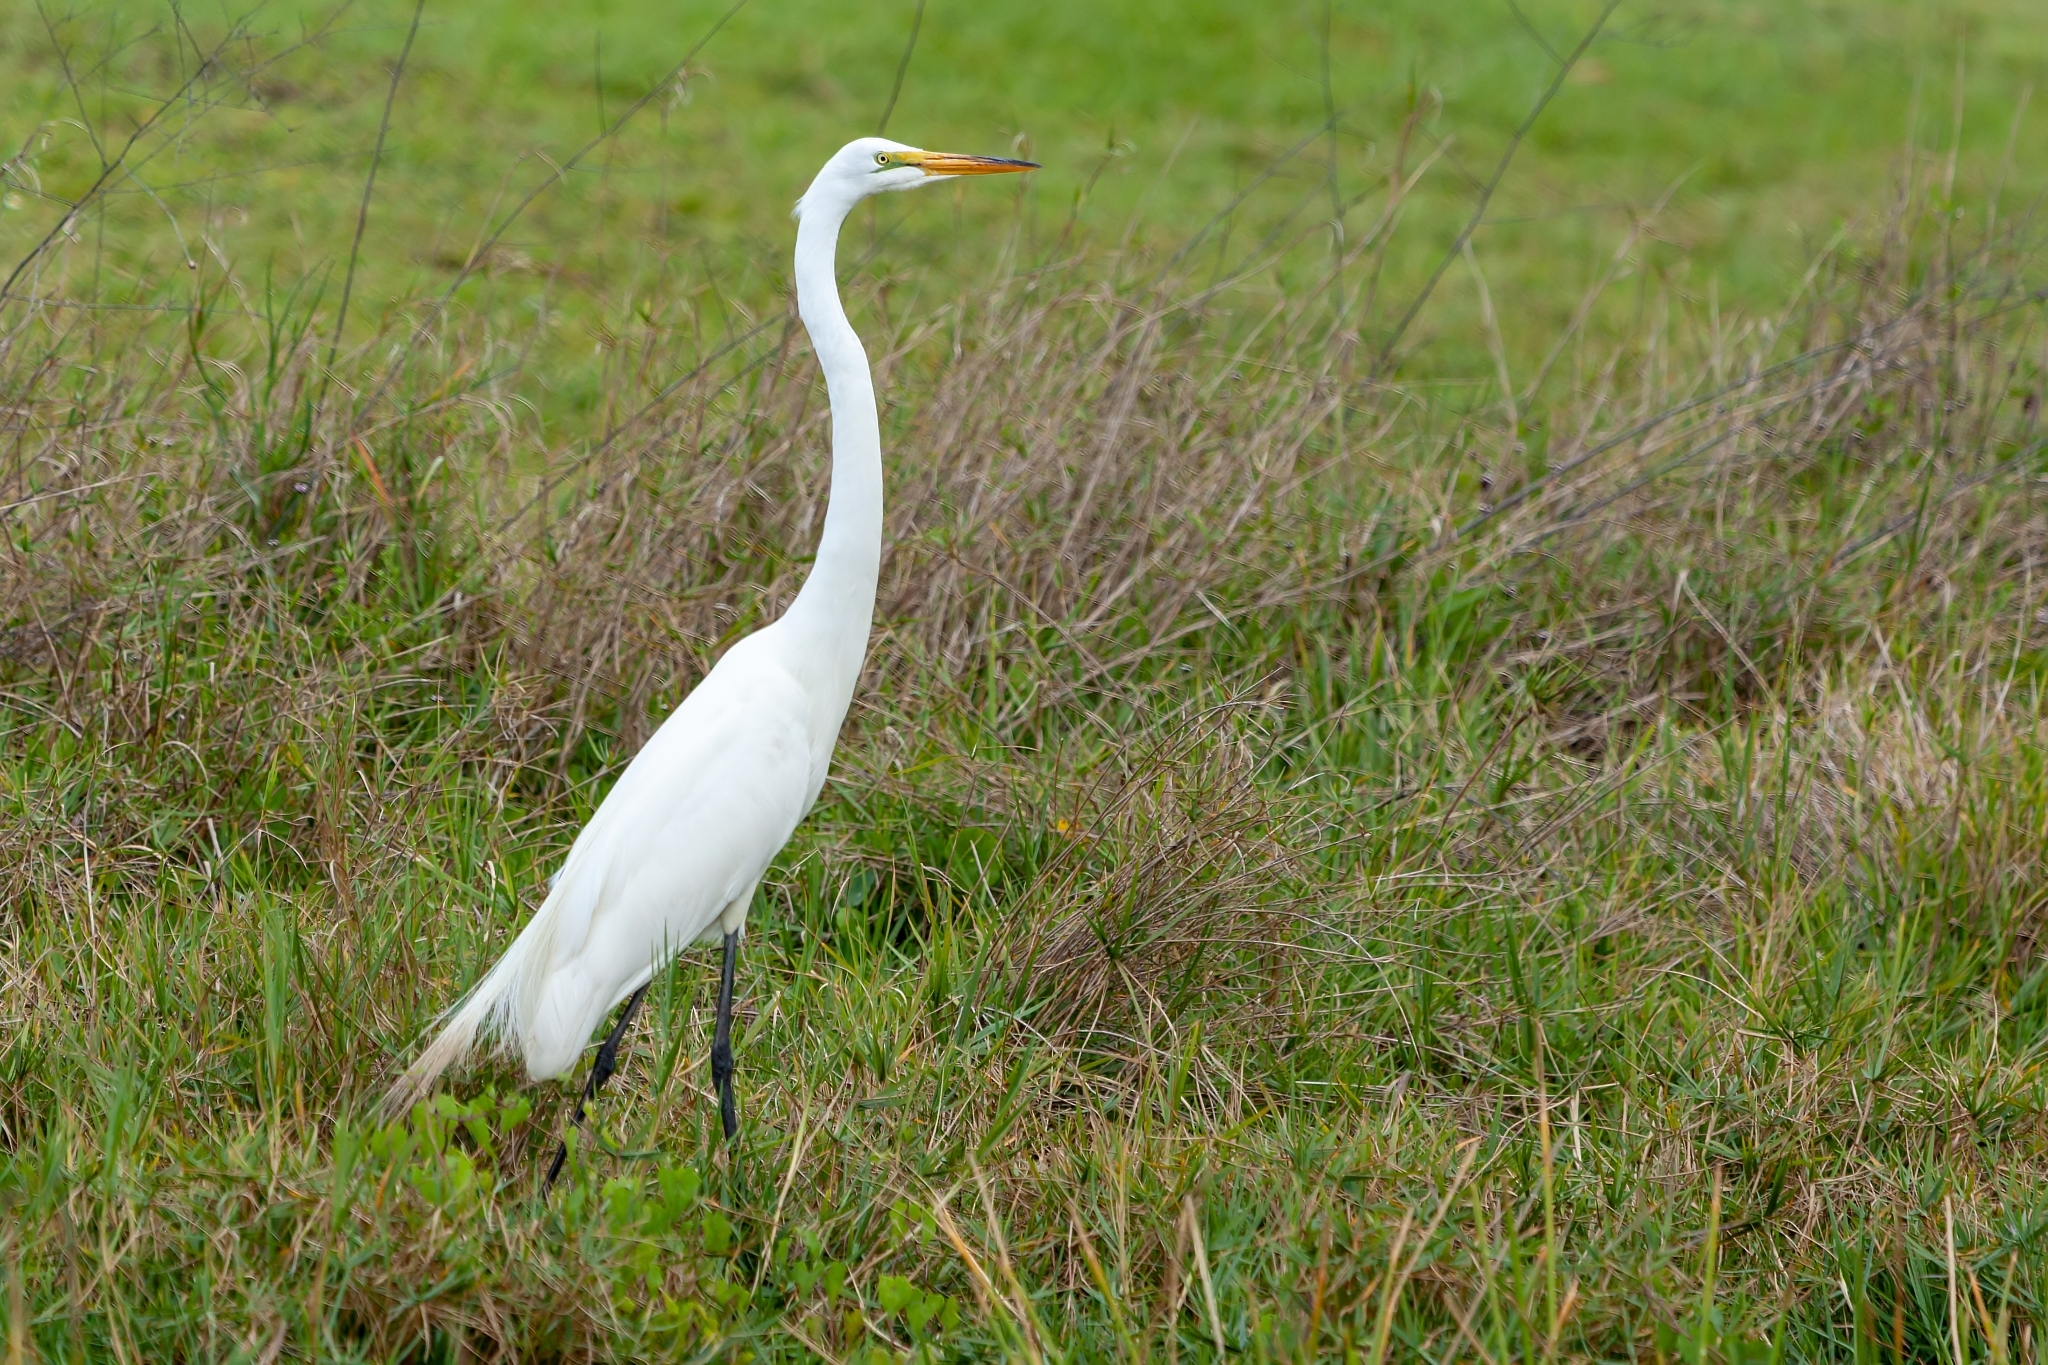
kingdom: Animalia
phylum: Chordata
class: Aves
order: Pelecaniformes
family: Ardeidae
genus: Ardea
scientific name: Ardea alba
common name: Great egret
